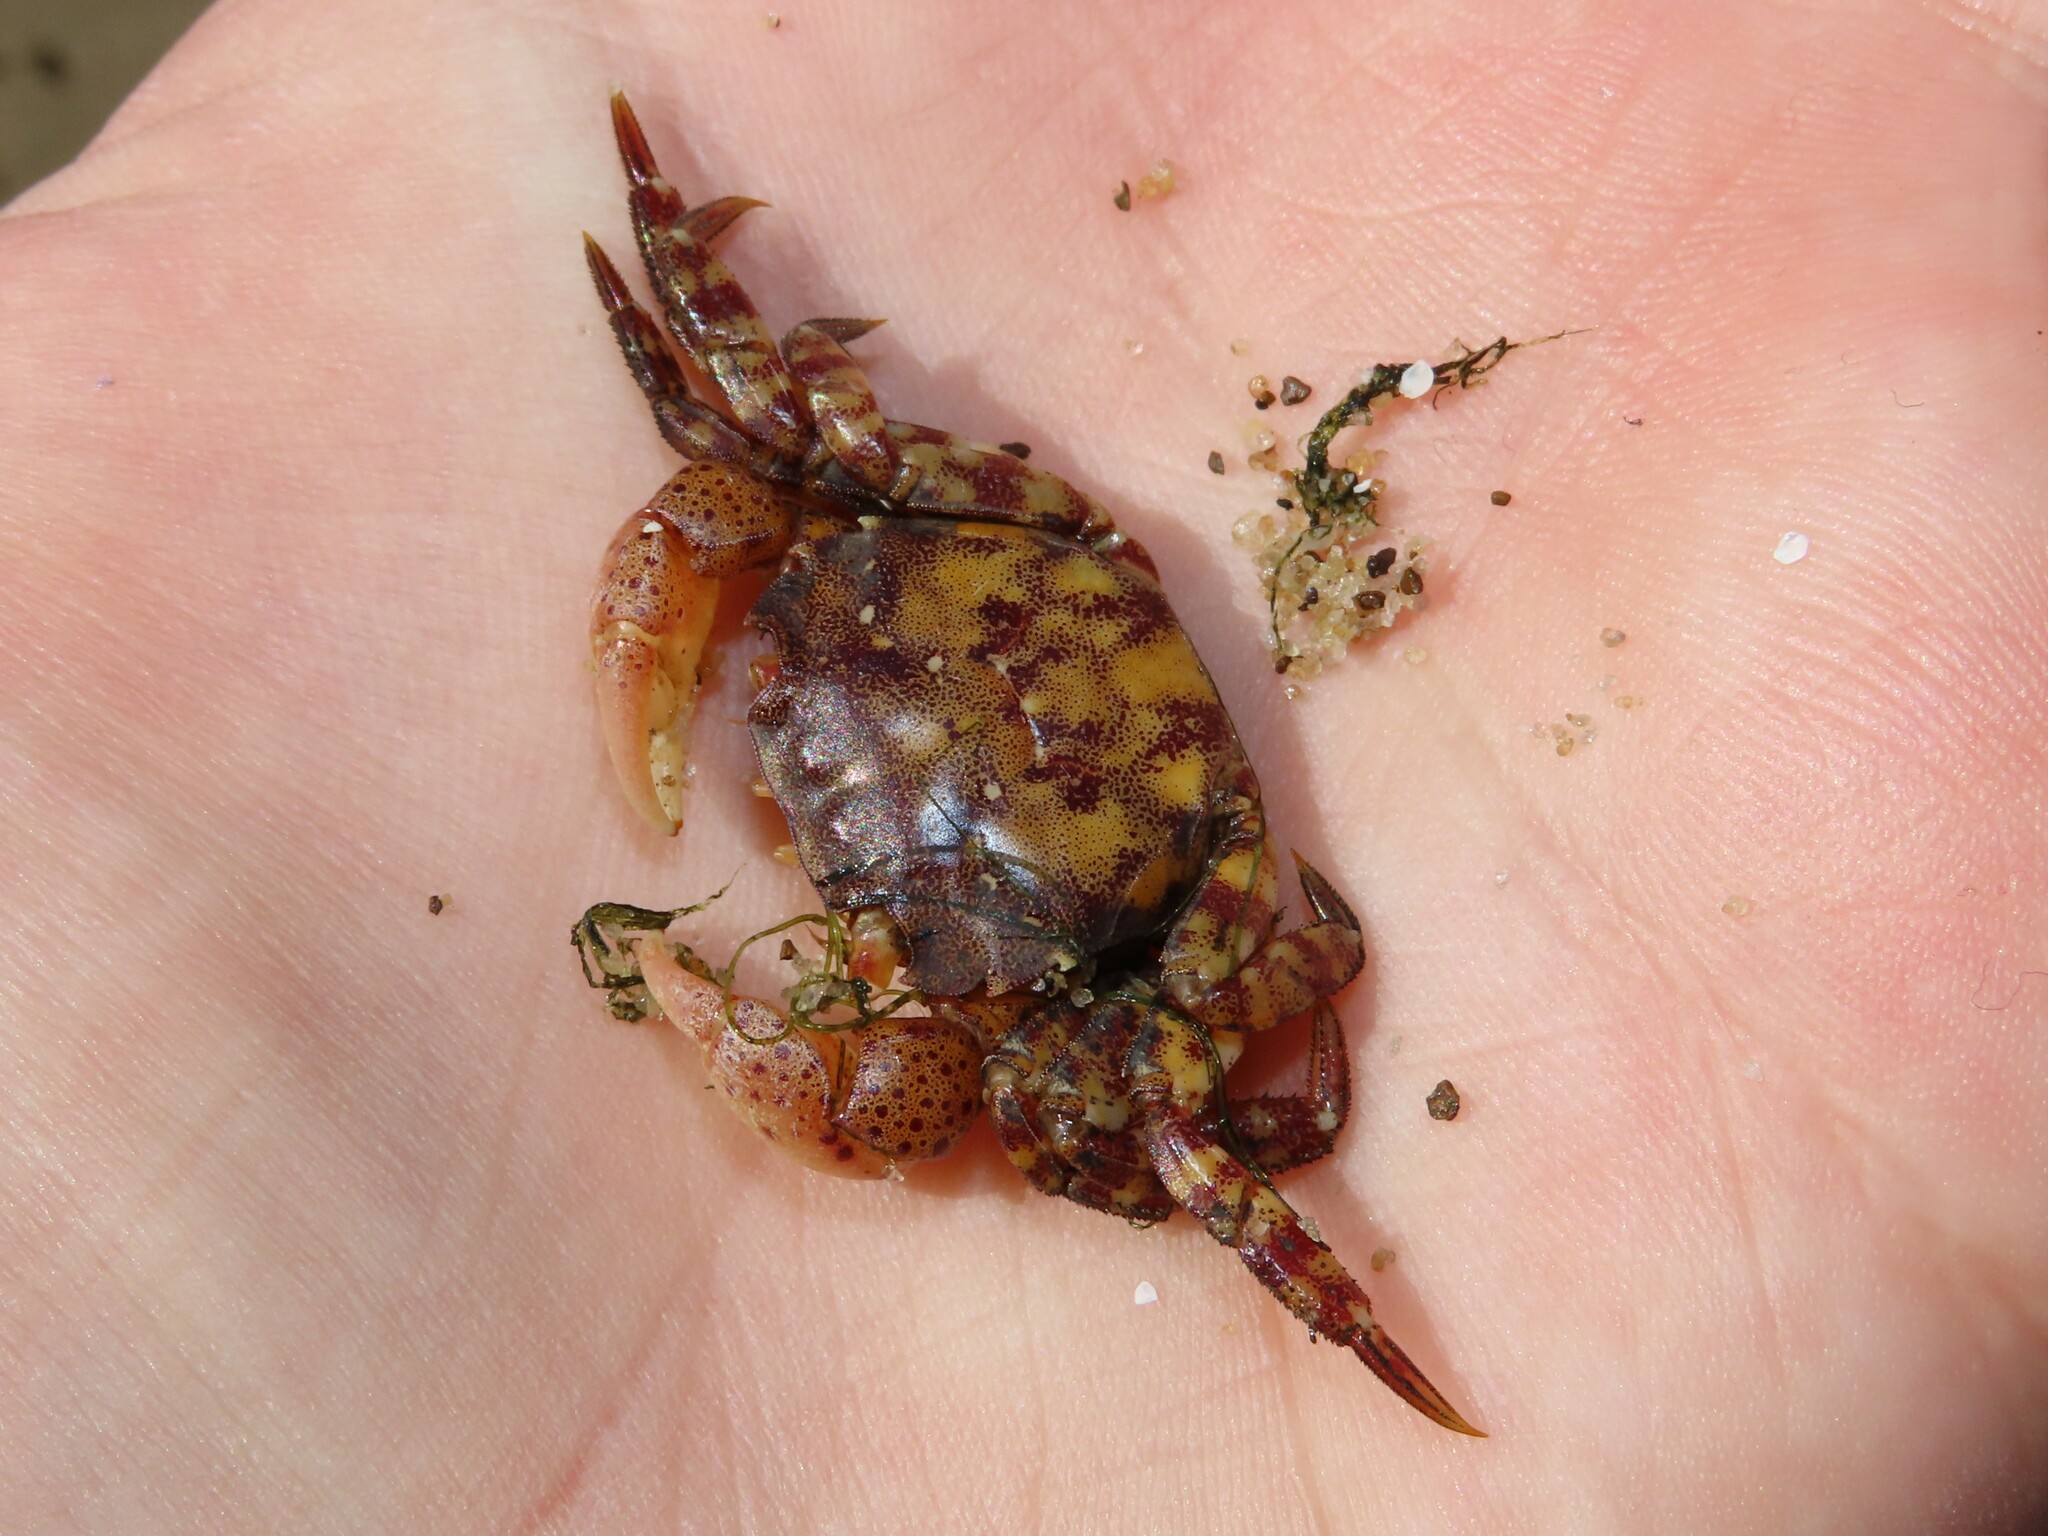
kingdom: Animalia
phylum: Arthropoda
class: Malacostraca
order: Decapoda
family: Varunidae
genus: Hemigrapsus
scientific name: Hemigrapsus sanguineus
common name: Asian shore crab
